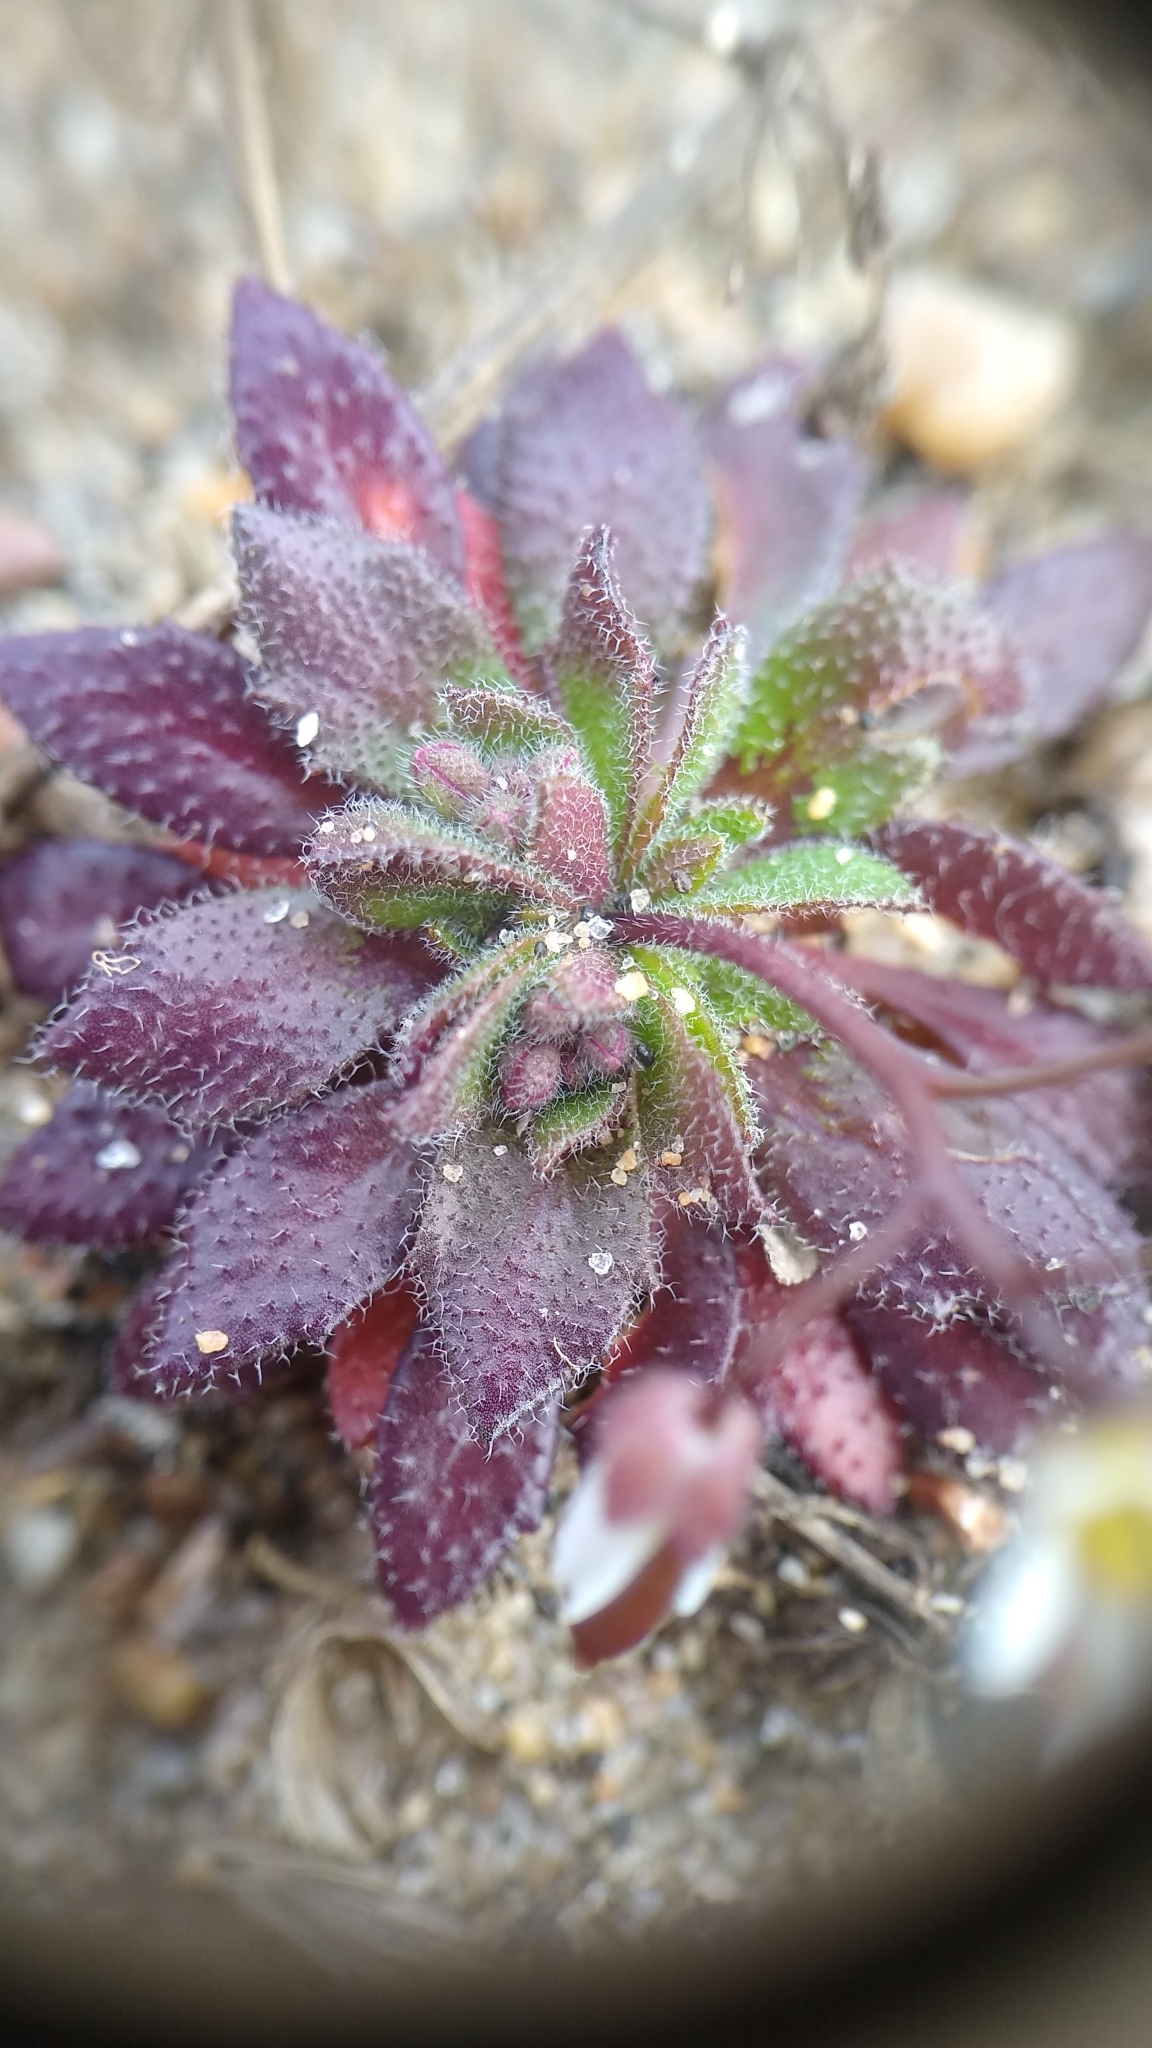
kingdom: Plantae
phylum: Tracheophyta
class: Magnoliopsida
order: Brassicales
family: Brassicaceae
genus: Draba
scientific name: Draba verna
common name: Spring draba
